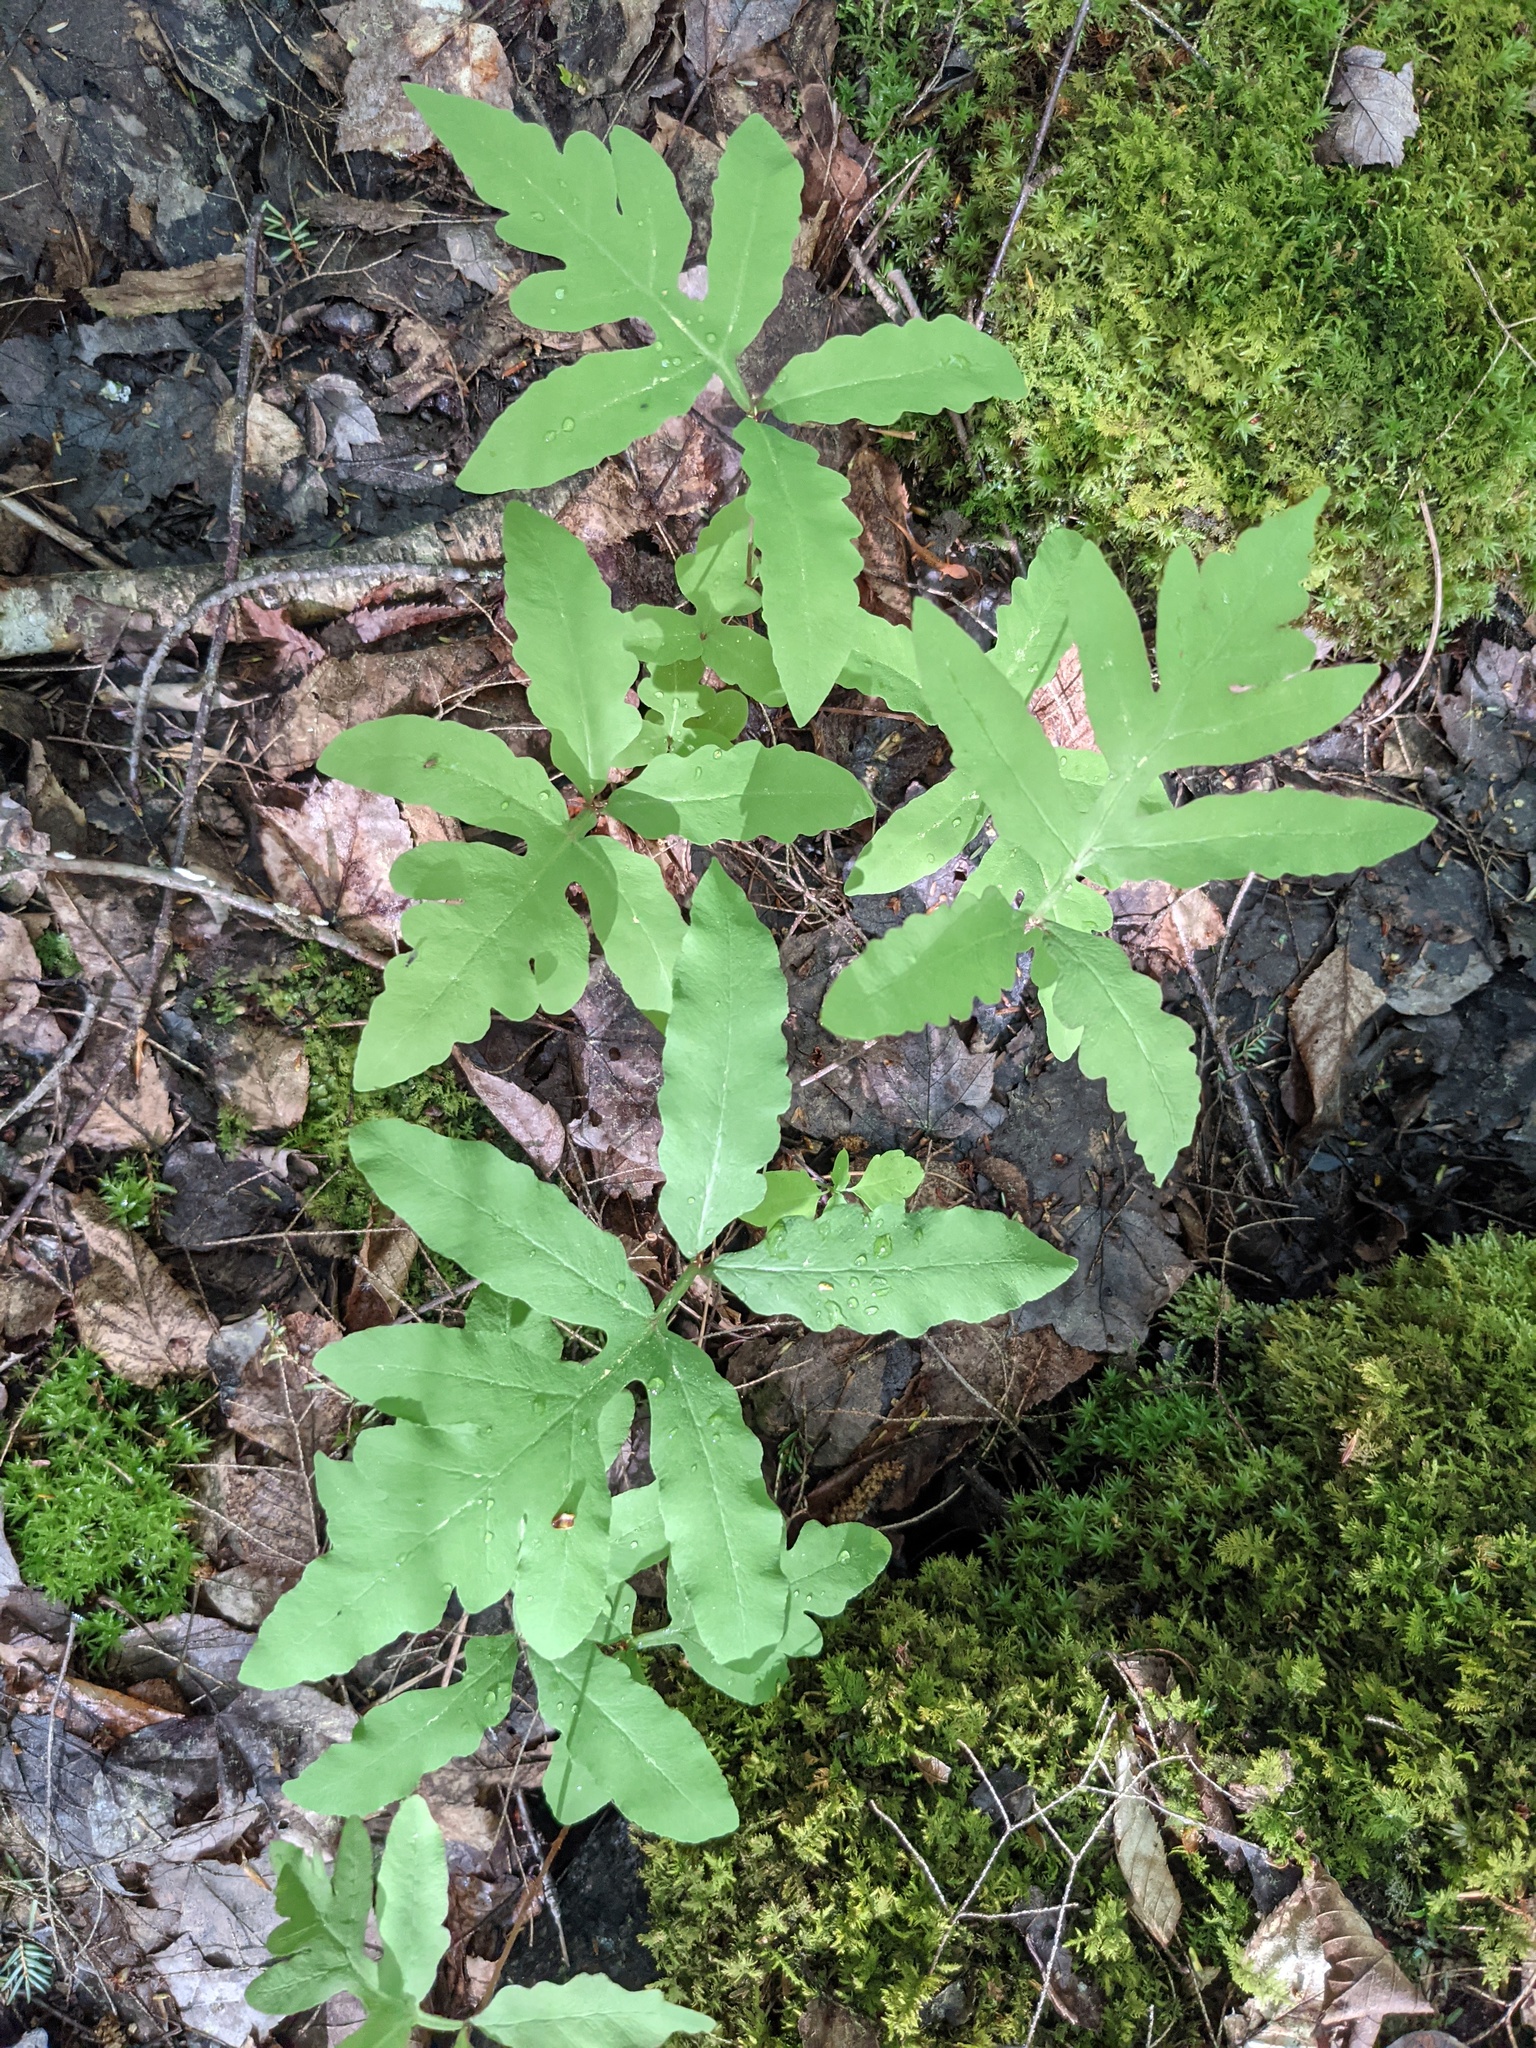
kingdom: Plantae
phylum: Tracheophyta
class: Polypodiopsida
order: Polypodiales
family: Onocleaceae
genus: Onoclea
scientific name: Onoclea sensibilis
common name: Sensitive fern
